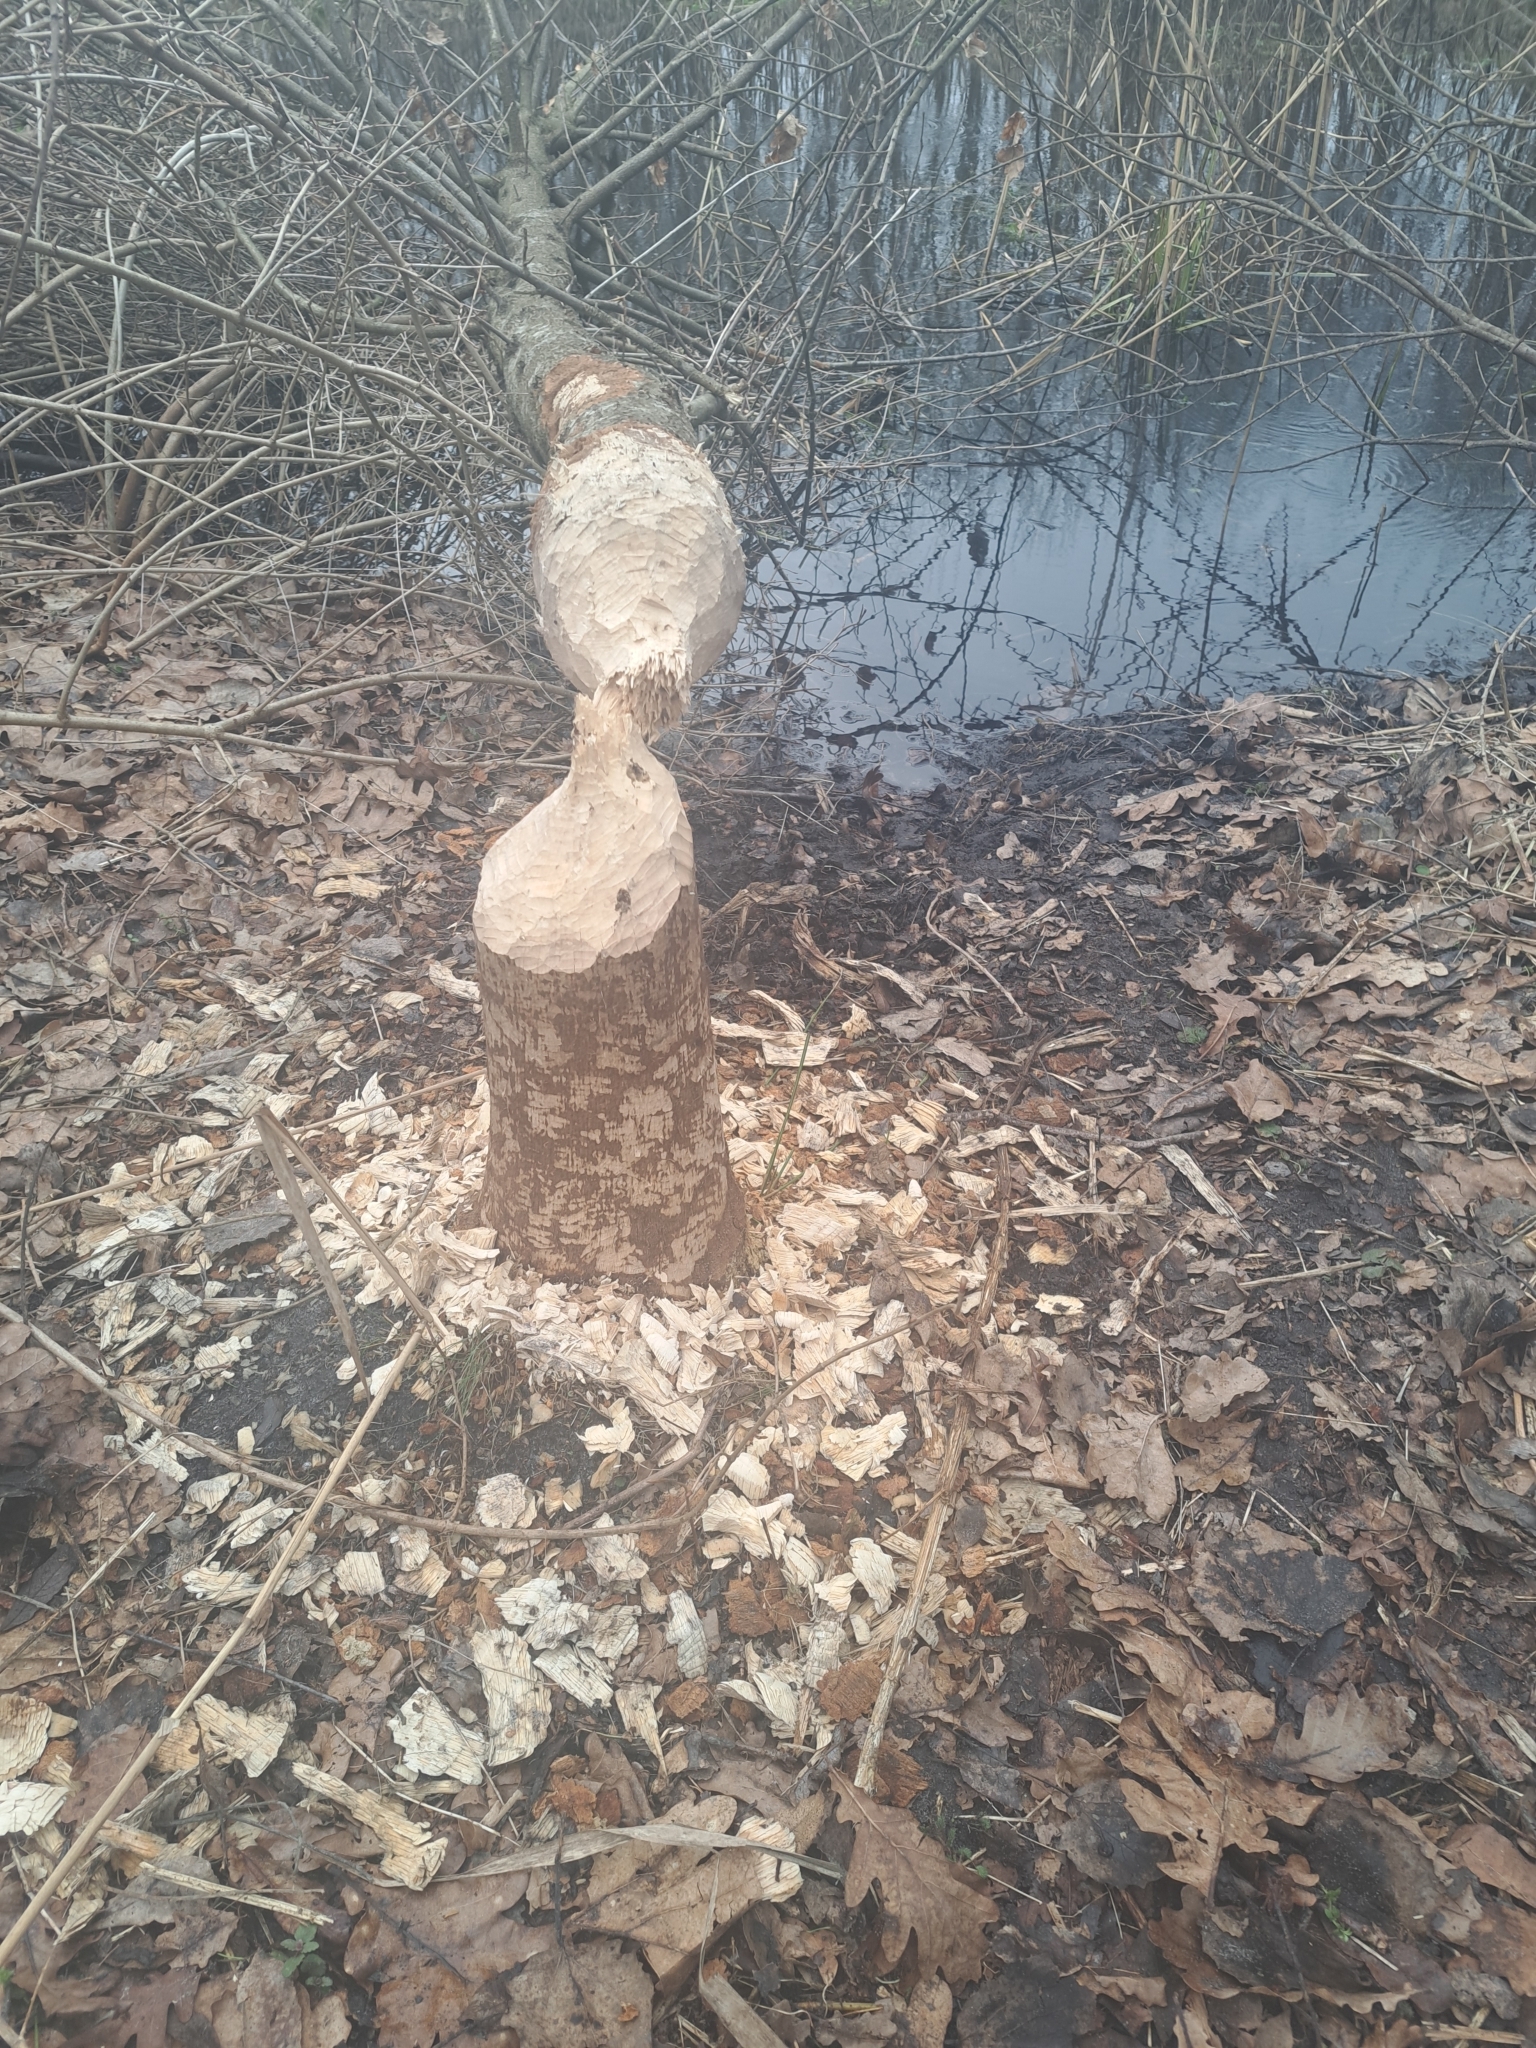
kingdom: Animalia
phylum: Chordata
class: Mammalia
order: Rodentia
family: Castoridae
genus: Castor
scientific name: Castor fiber
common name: Eurasian beaver
